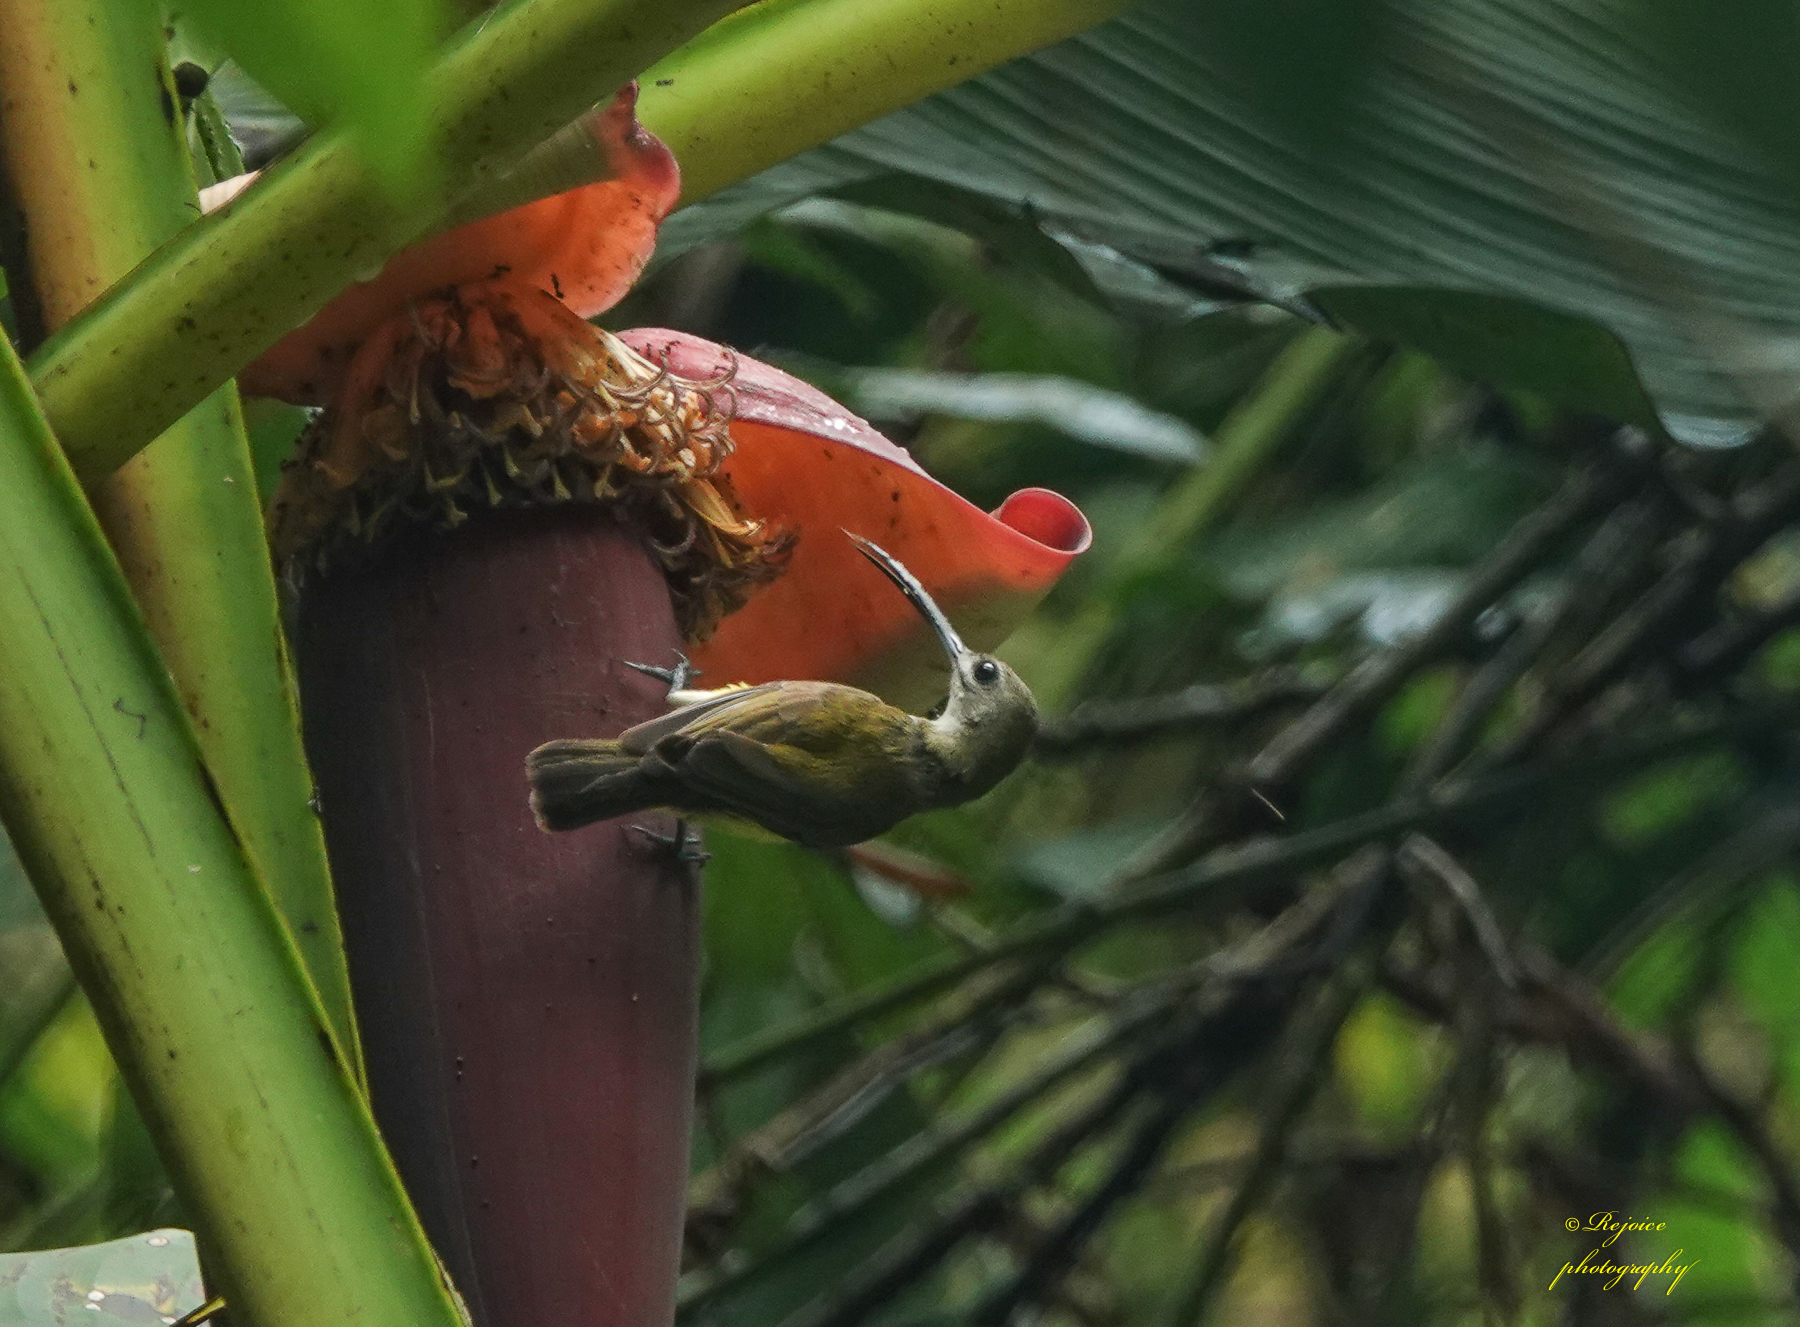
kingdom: Animalia
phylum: Chordata
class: Aves
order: Passeriformes
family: Nectariniidae
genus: Arachnothera
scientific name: Arachnothera longirostra
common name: Little spiderhunter
